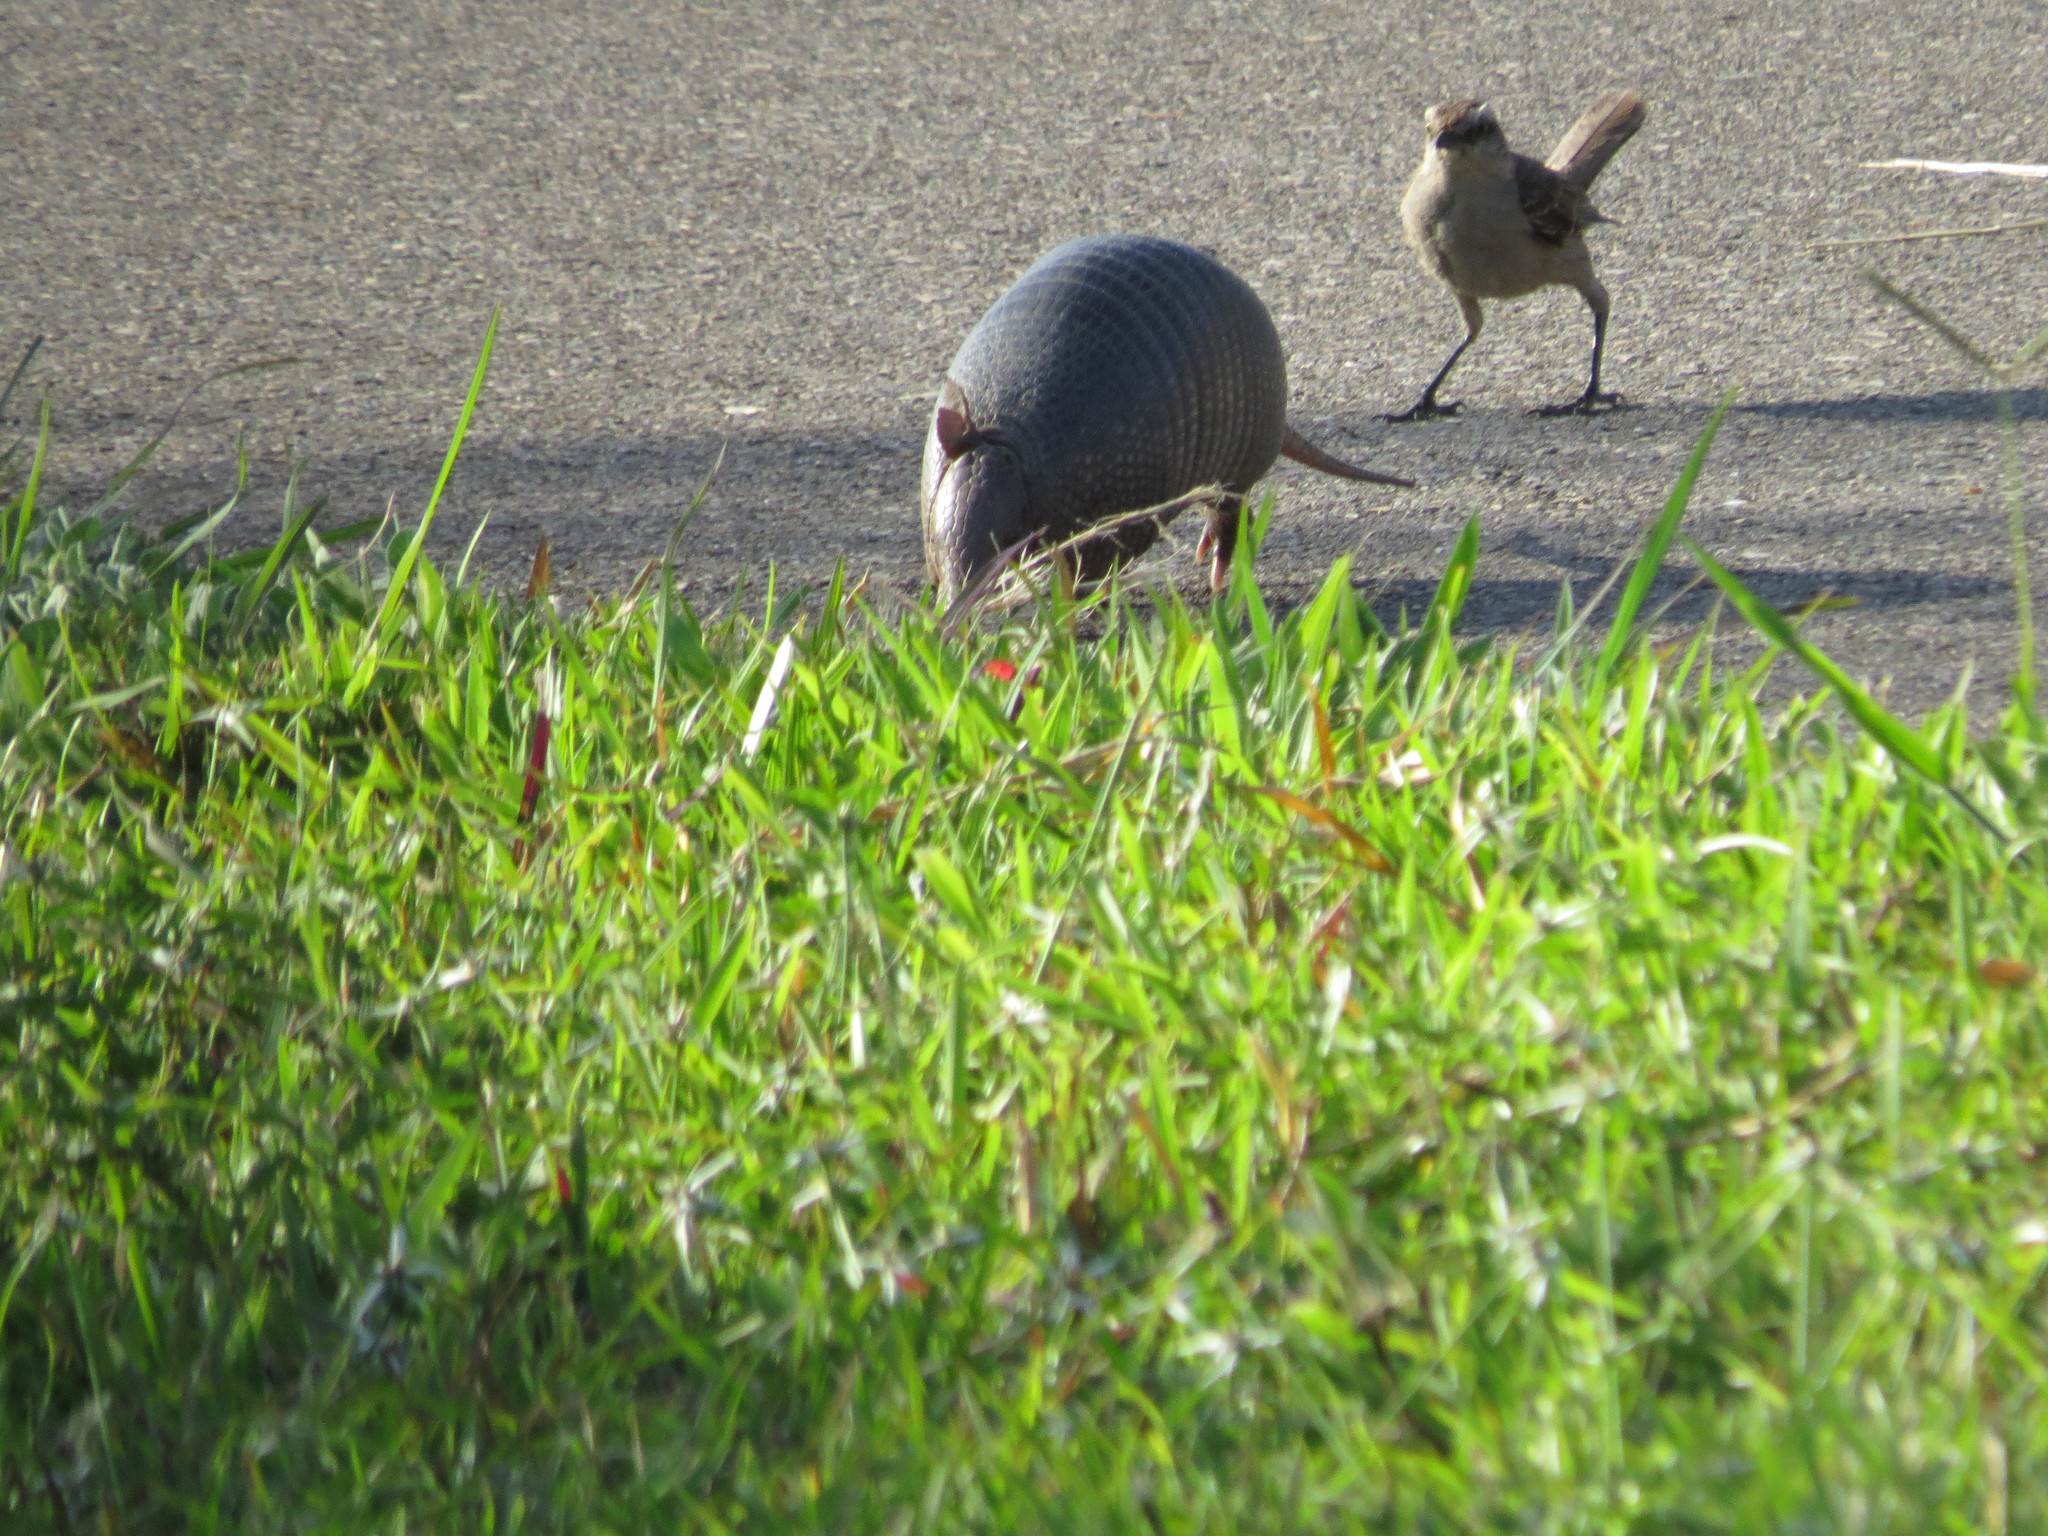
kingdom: Animalia
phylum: Chordata
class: Mammalia
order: Cingulata
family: Dasypodidae
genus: Dasypus
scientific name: Dasypus novemcinctus
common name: Nine-banded armadillo
